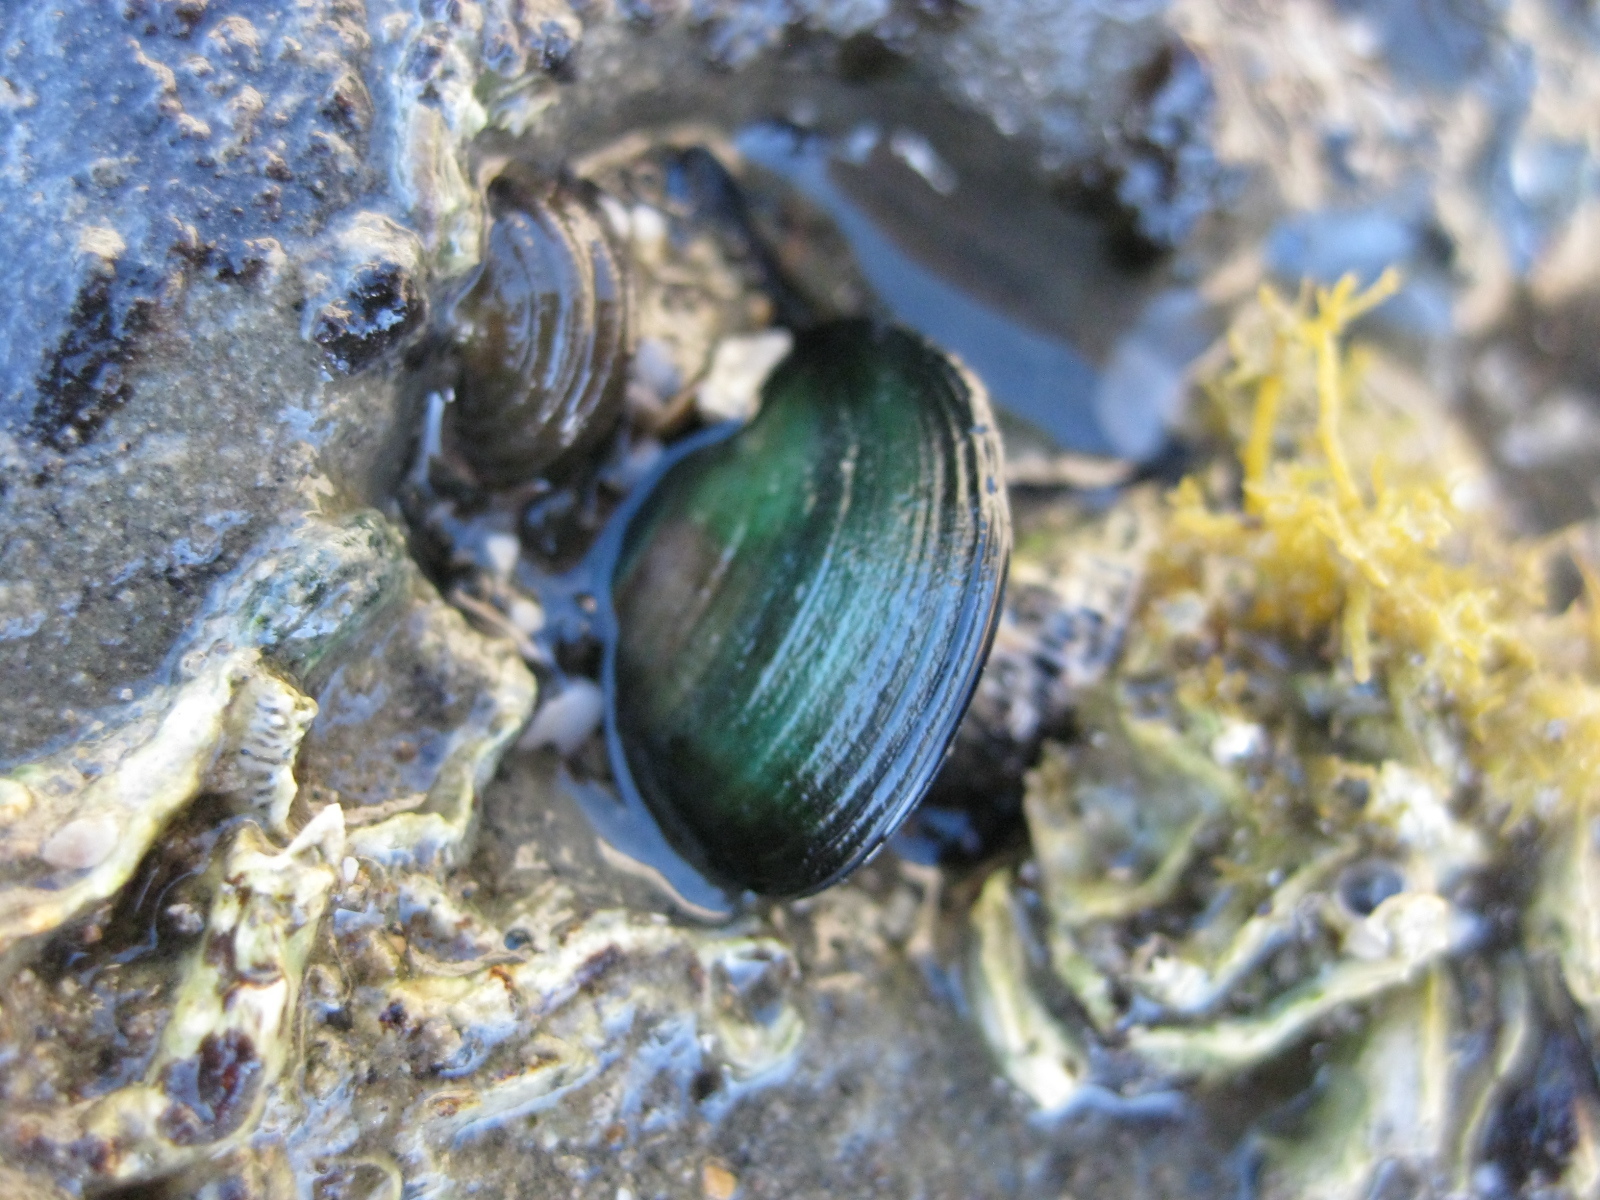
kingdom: Animalia
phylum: Mollusca
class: Bivalvia
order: Mytilida
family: Mytilidae
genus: Perna
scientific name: Perna canaliculus
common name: New zealand greenshelltm
